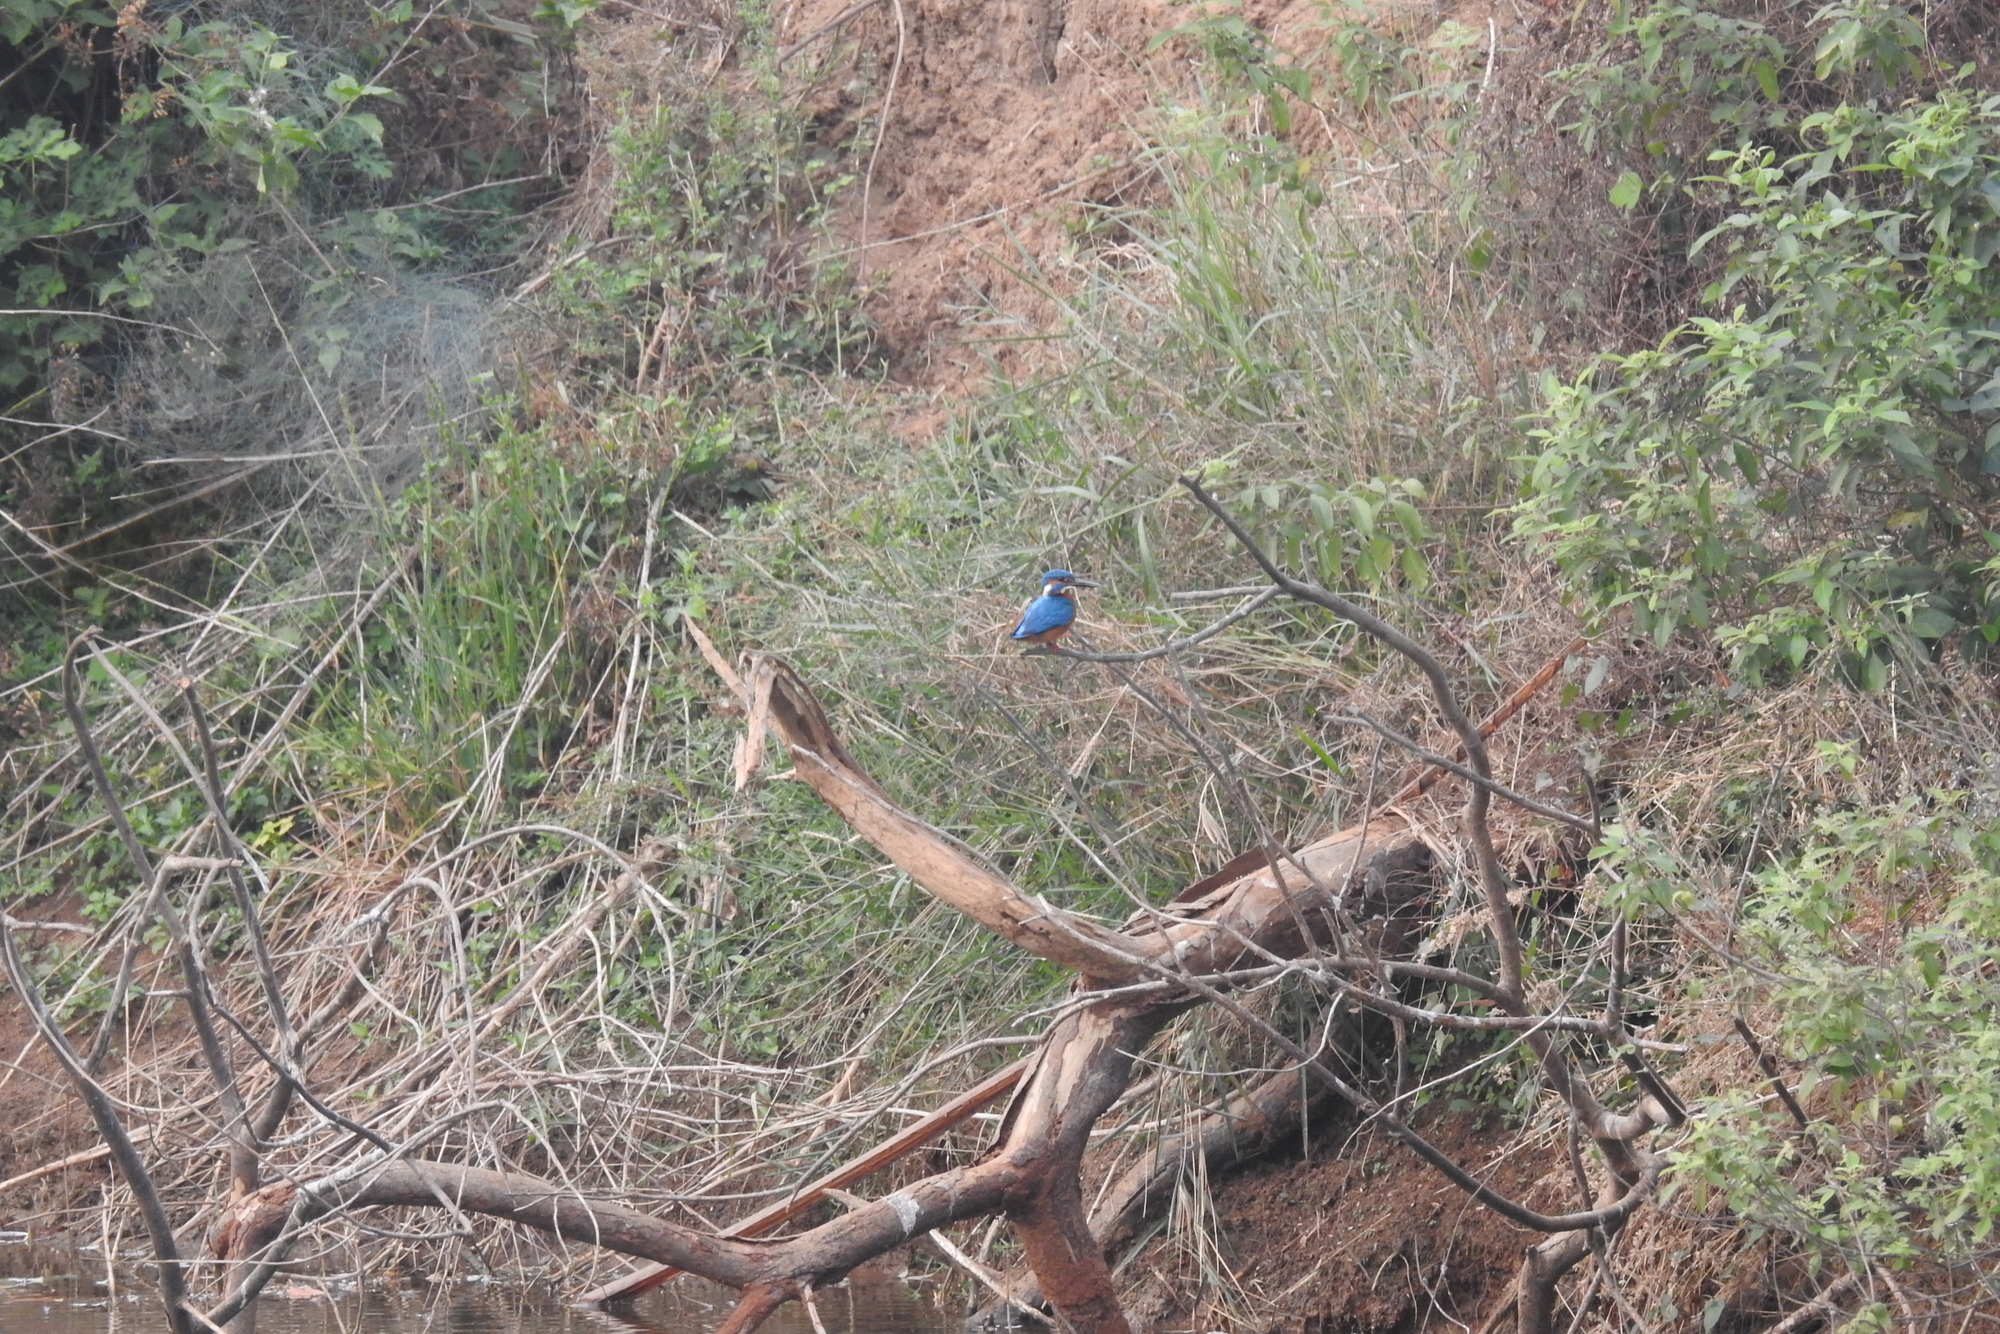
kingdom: Animalia
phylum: Chordata
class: Aves
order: Coraciiformes
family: Alcedinidae
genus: Alcedo
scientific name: Alcedo atthis
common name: Common kingfisher
